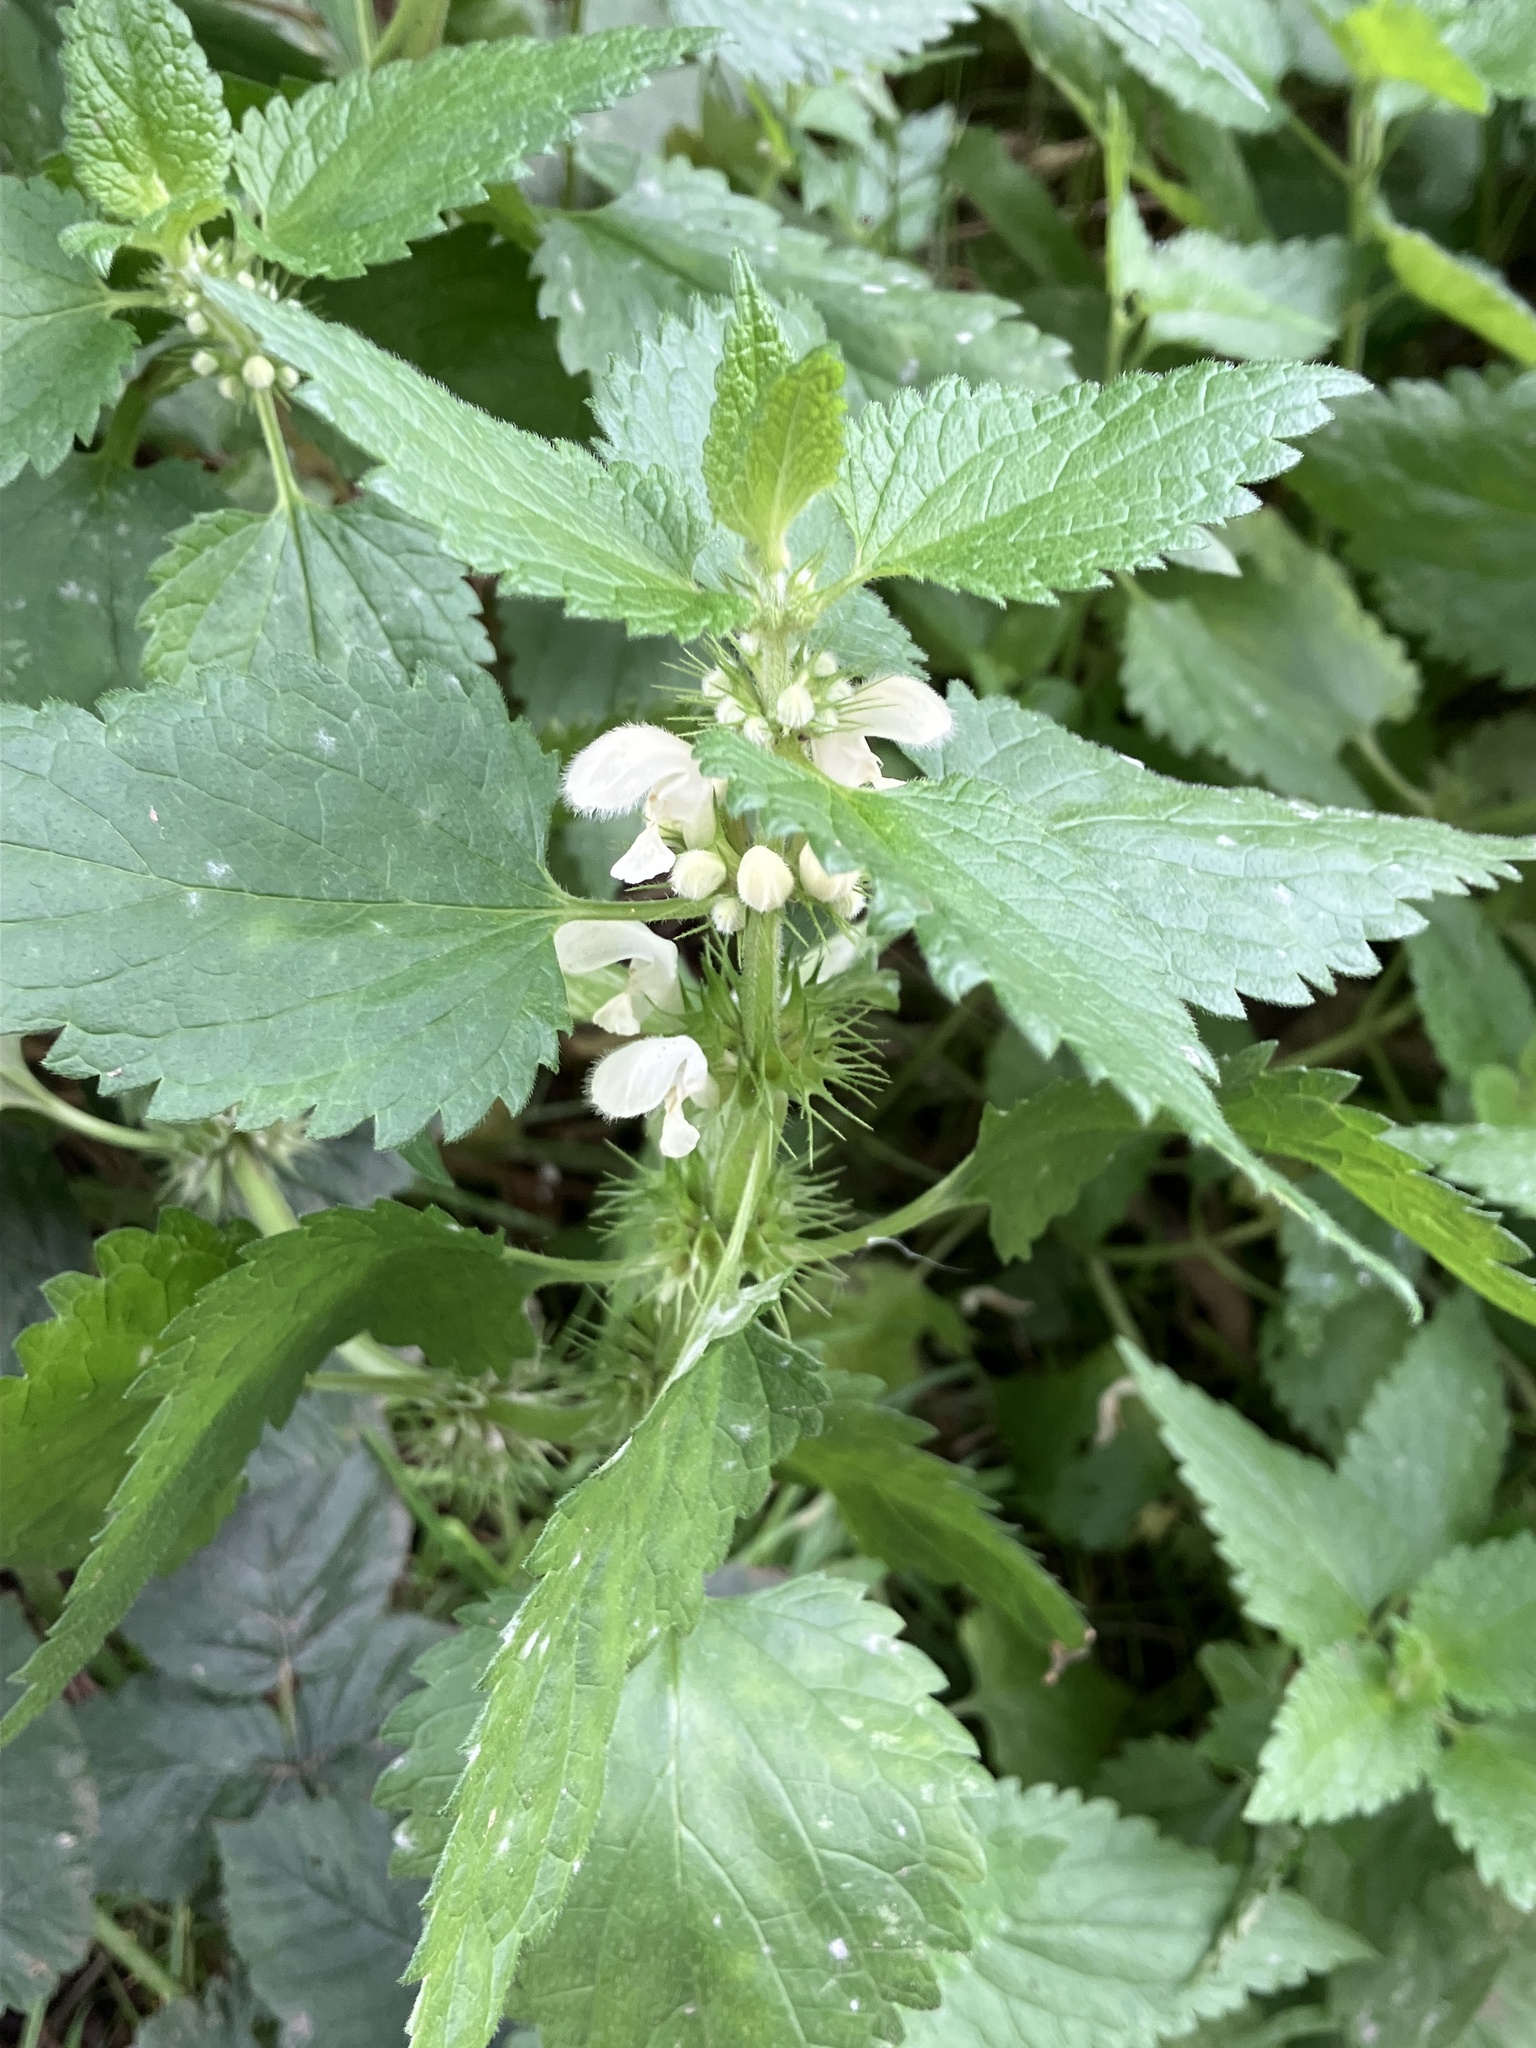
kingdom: Plantae
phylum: Tracheophyta
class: Magnoliopsida
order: Lamiales
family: Lamiaceae
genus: Lamium
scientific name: Lamium album
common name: White dead-nettle
